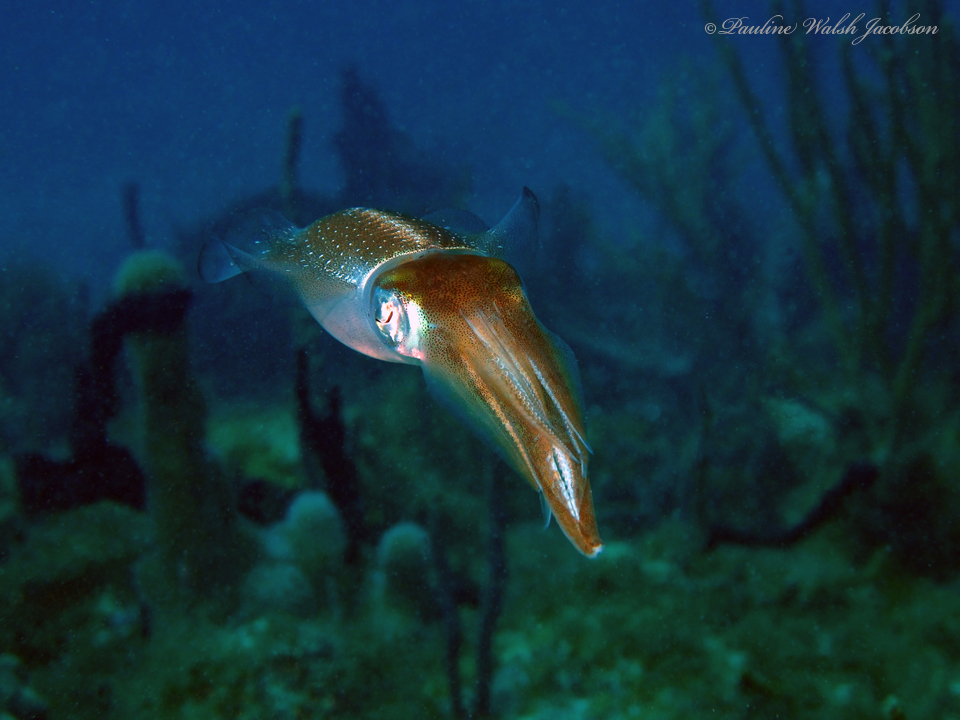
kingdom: Animalia
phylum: Mollusca
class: Cephalopoda
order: Myopsida
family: Loliginidae
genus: Sepioteuthis
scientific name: Sepioteuthis sepioidea
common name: Caribbean reef squid
